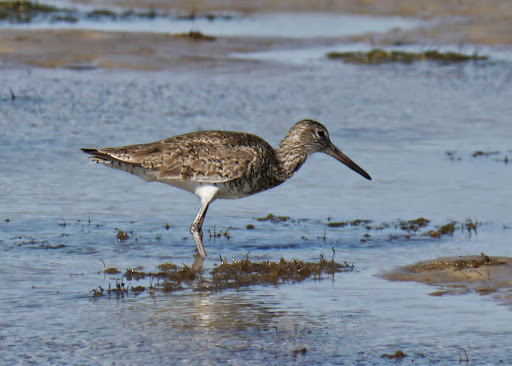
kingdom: Animalia
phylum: Chordata
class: Aves
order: Charadriiformes
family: Scolopacidae
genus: Tringa
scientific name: Tringa semipalmata
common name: Willet
